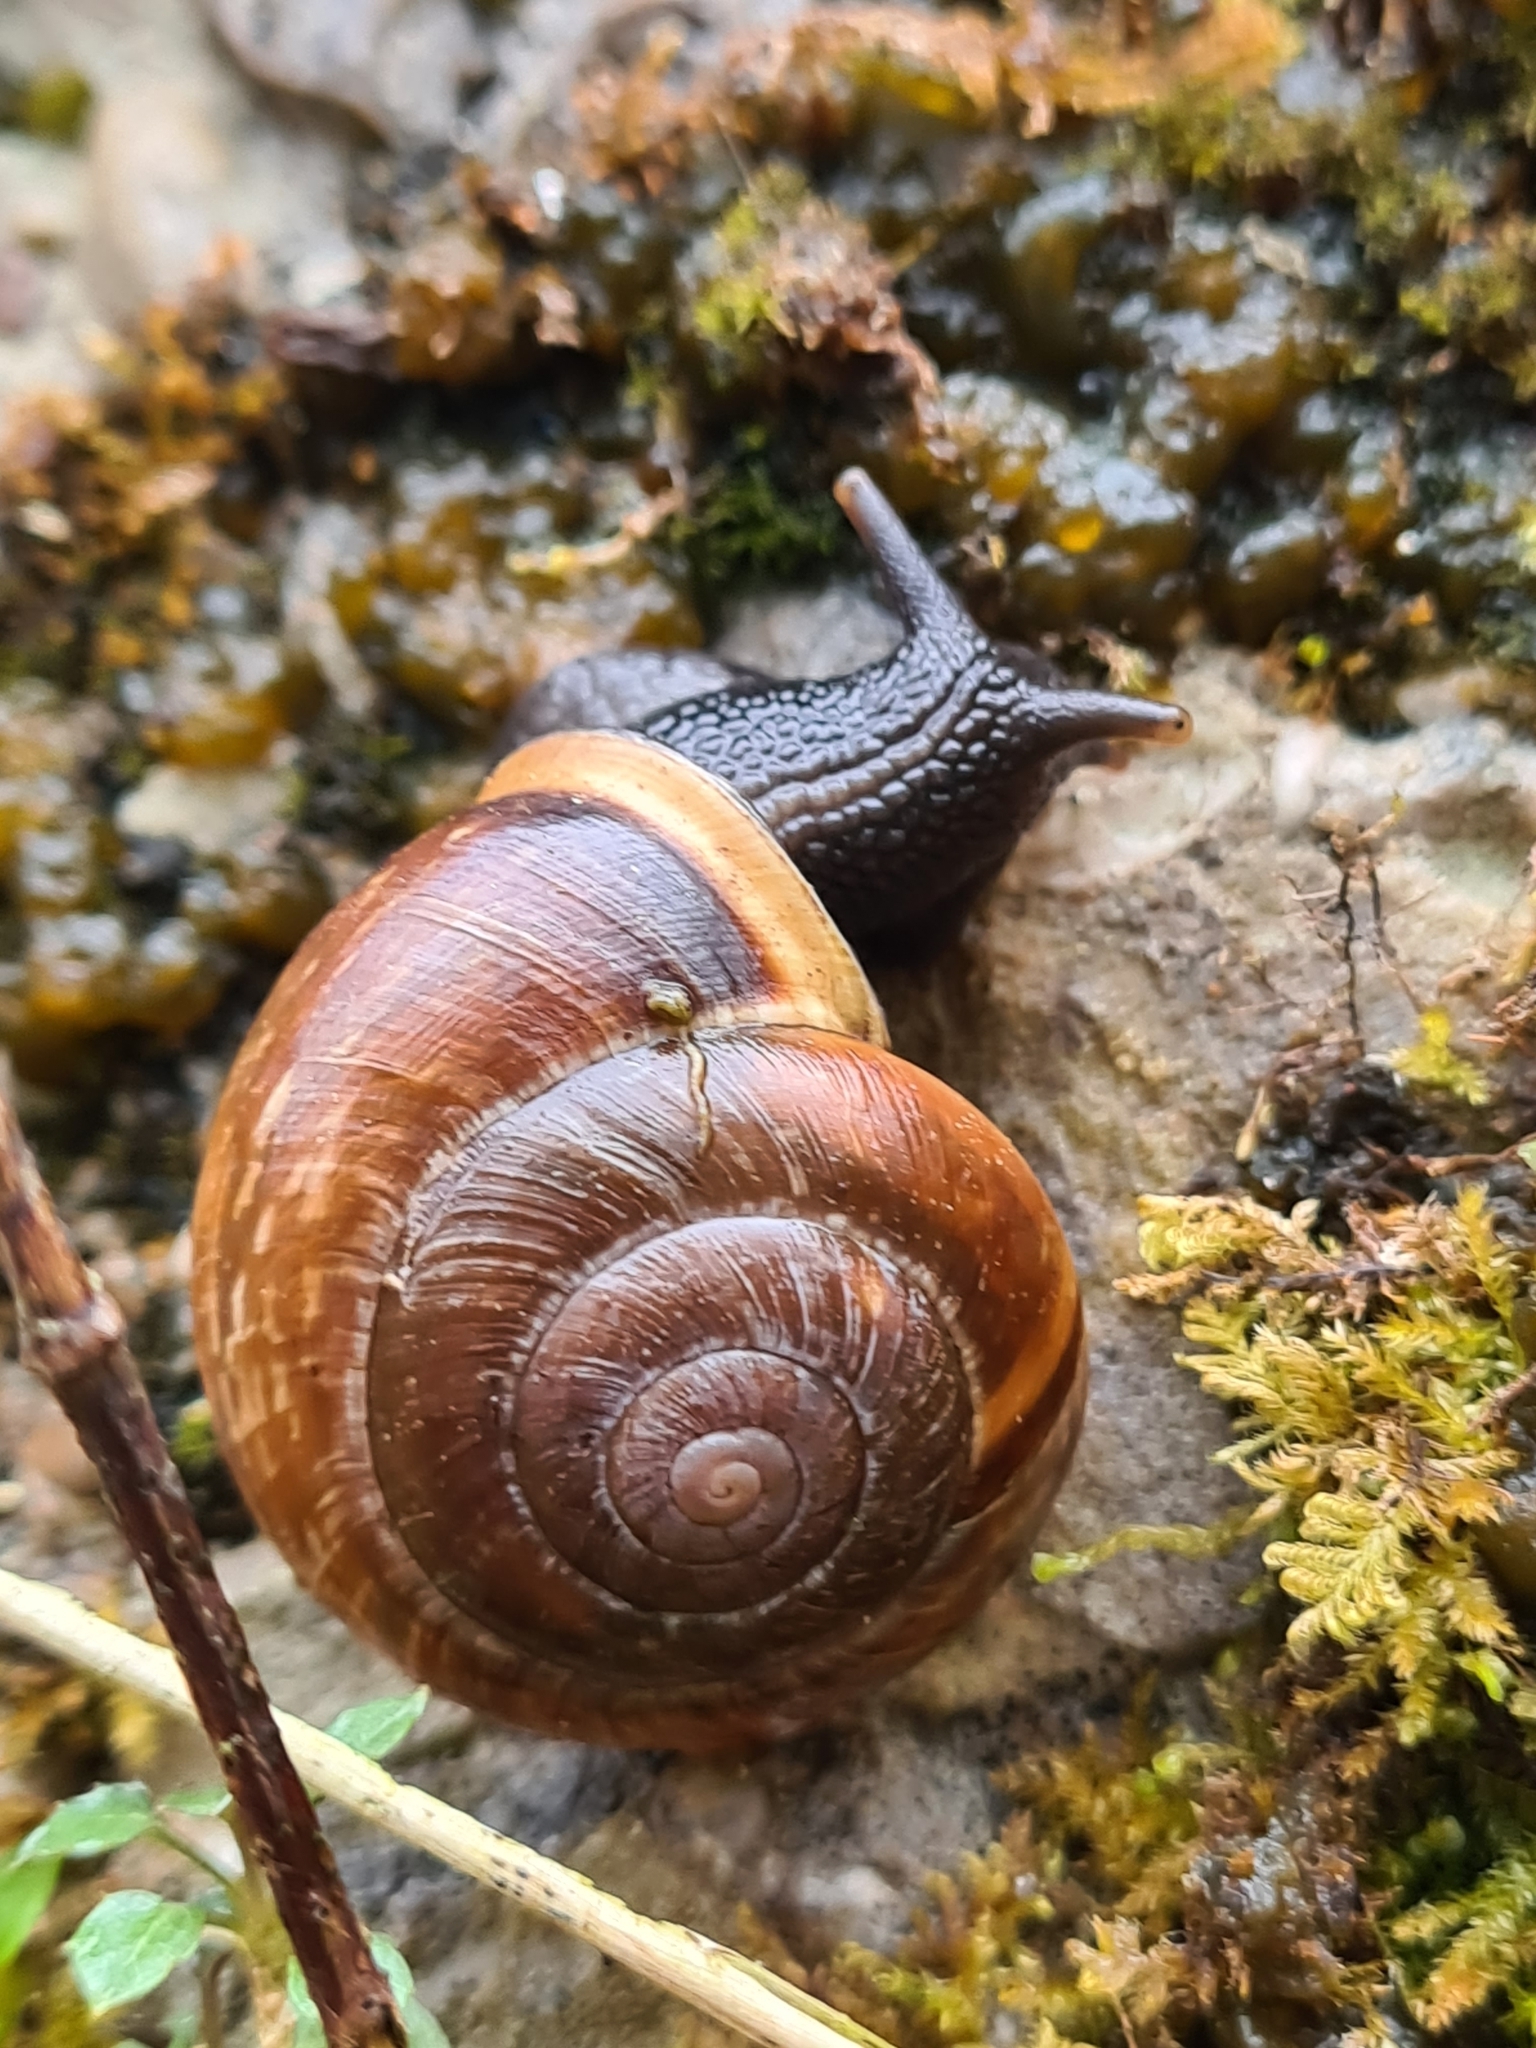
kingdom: Animalia
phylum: Mollusca
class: Gastropoda
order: Stylommatophora
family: Helicidae
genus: Arianta
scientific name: Arianta arbustorum
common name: Copse snail
